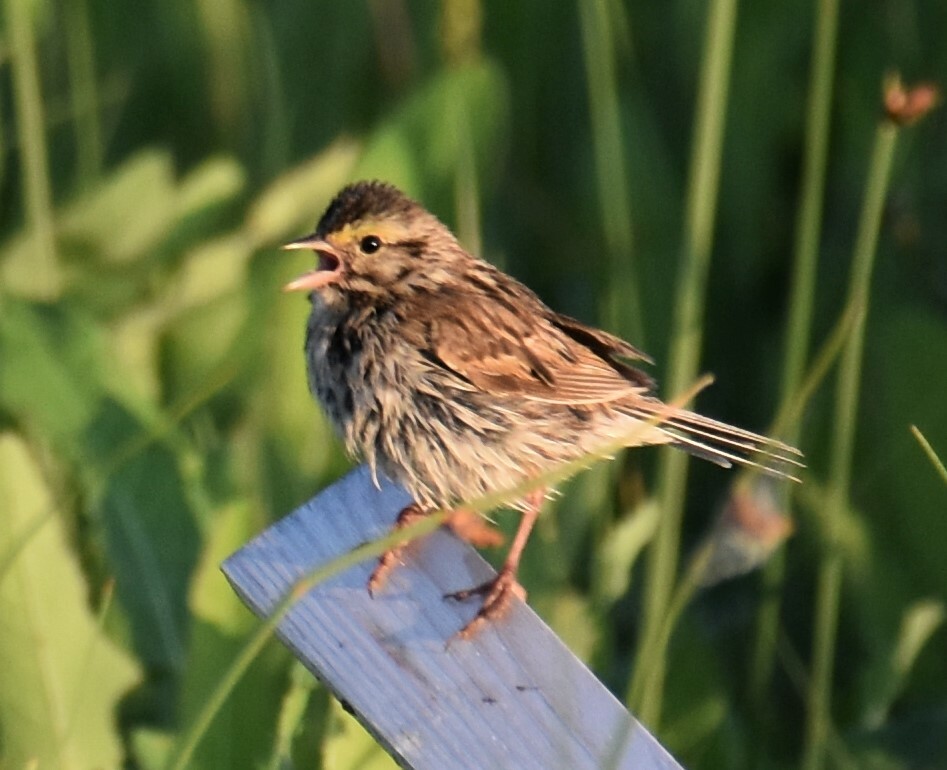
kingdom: Animalia
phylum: Chordata
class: Aves
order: Passeriformes
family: Passerellidae
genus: Passerculus
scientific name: Passerculus sandwichensis
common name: Savannah sparrow
